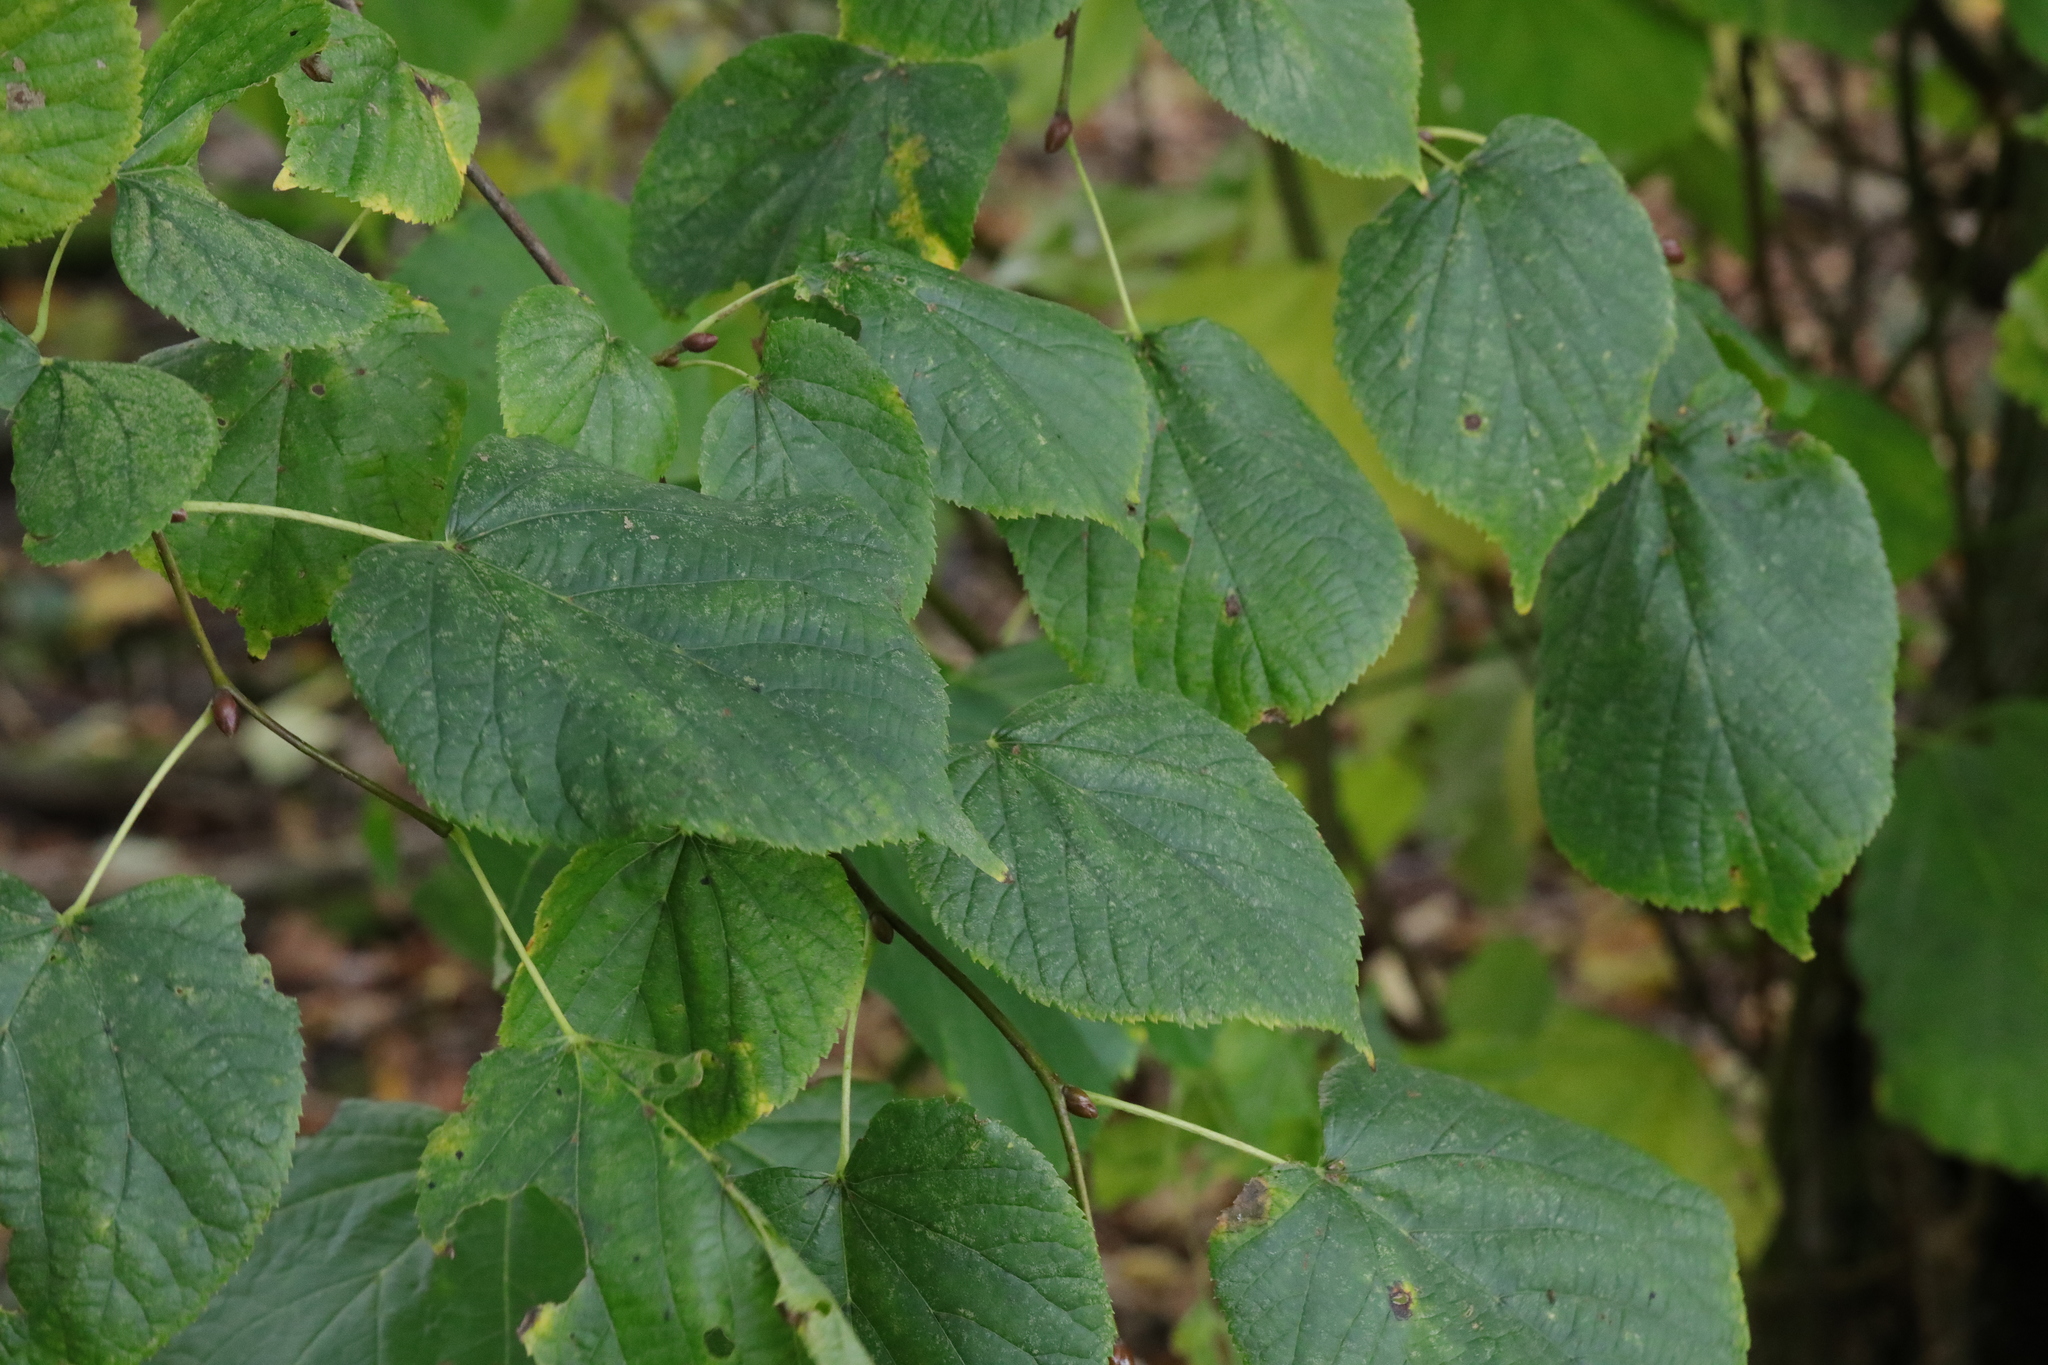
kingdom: Plantae
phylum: Tracheophyta
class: Magnoliopsida
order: Malvales
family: Malvaceae
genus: Tilia
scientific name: Tilia europaea
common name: European linden
